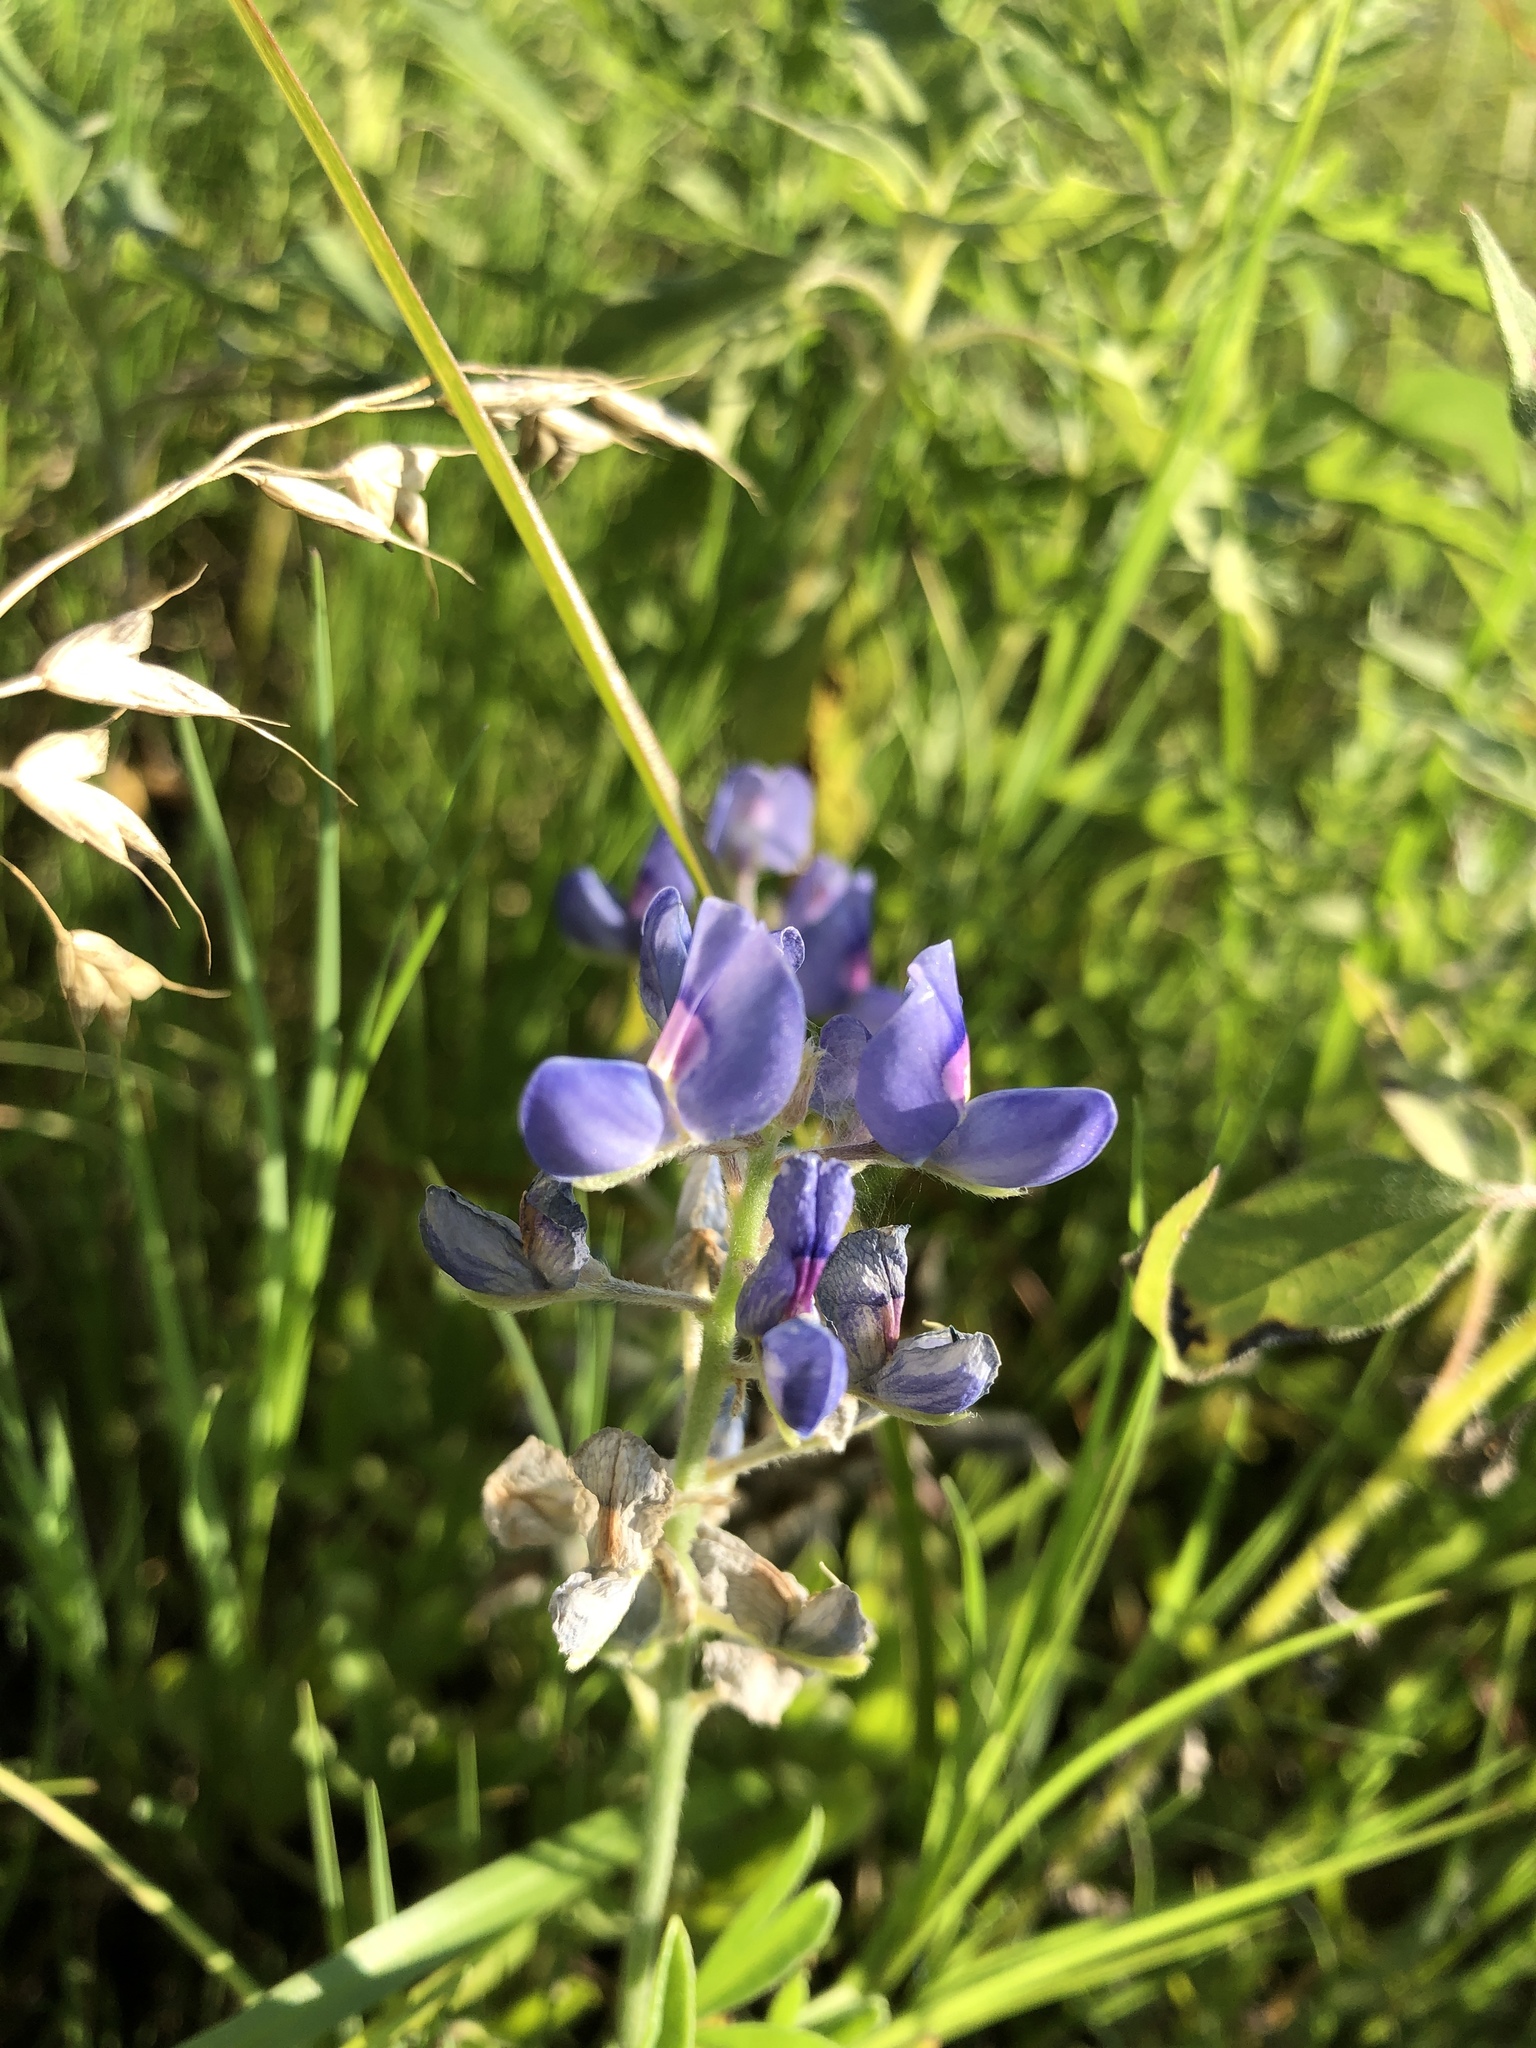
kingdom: Plantae
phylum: Tracheophyta
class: Magnoliopsida
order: Fabales
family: Fabaceae
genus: Lupinus
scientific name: Lupinus texensis
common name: Texas bluebonnet
